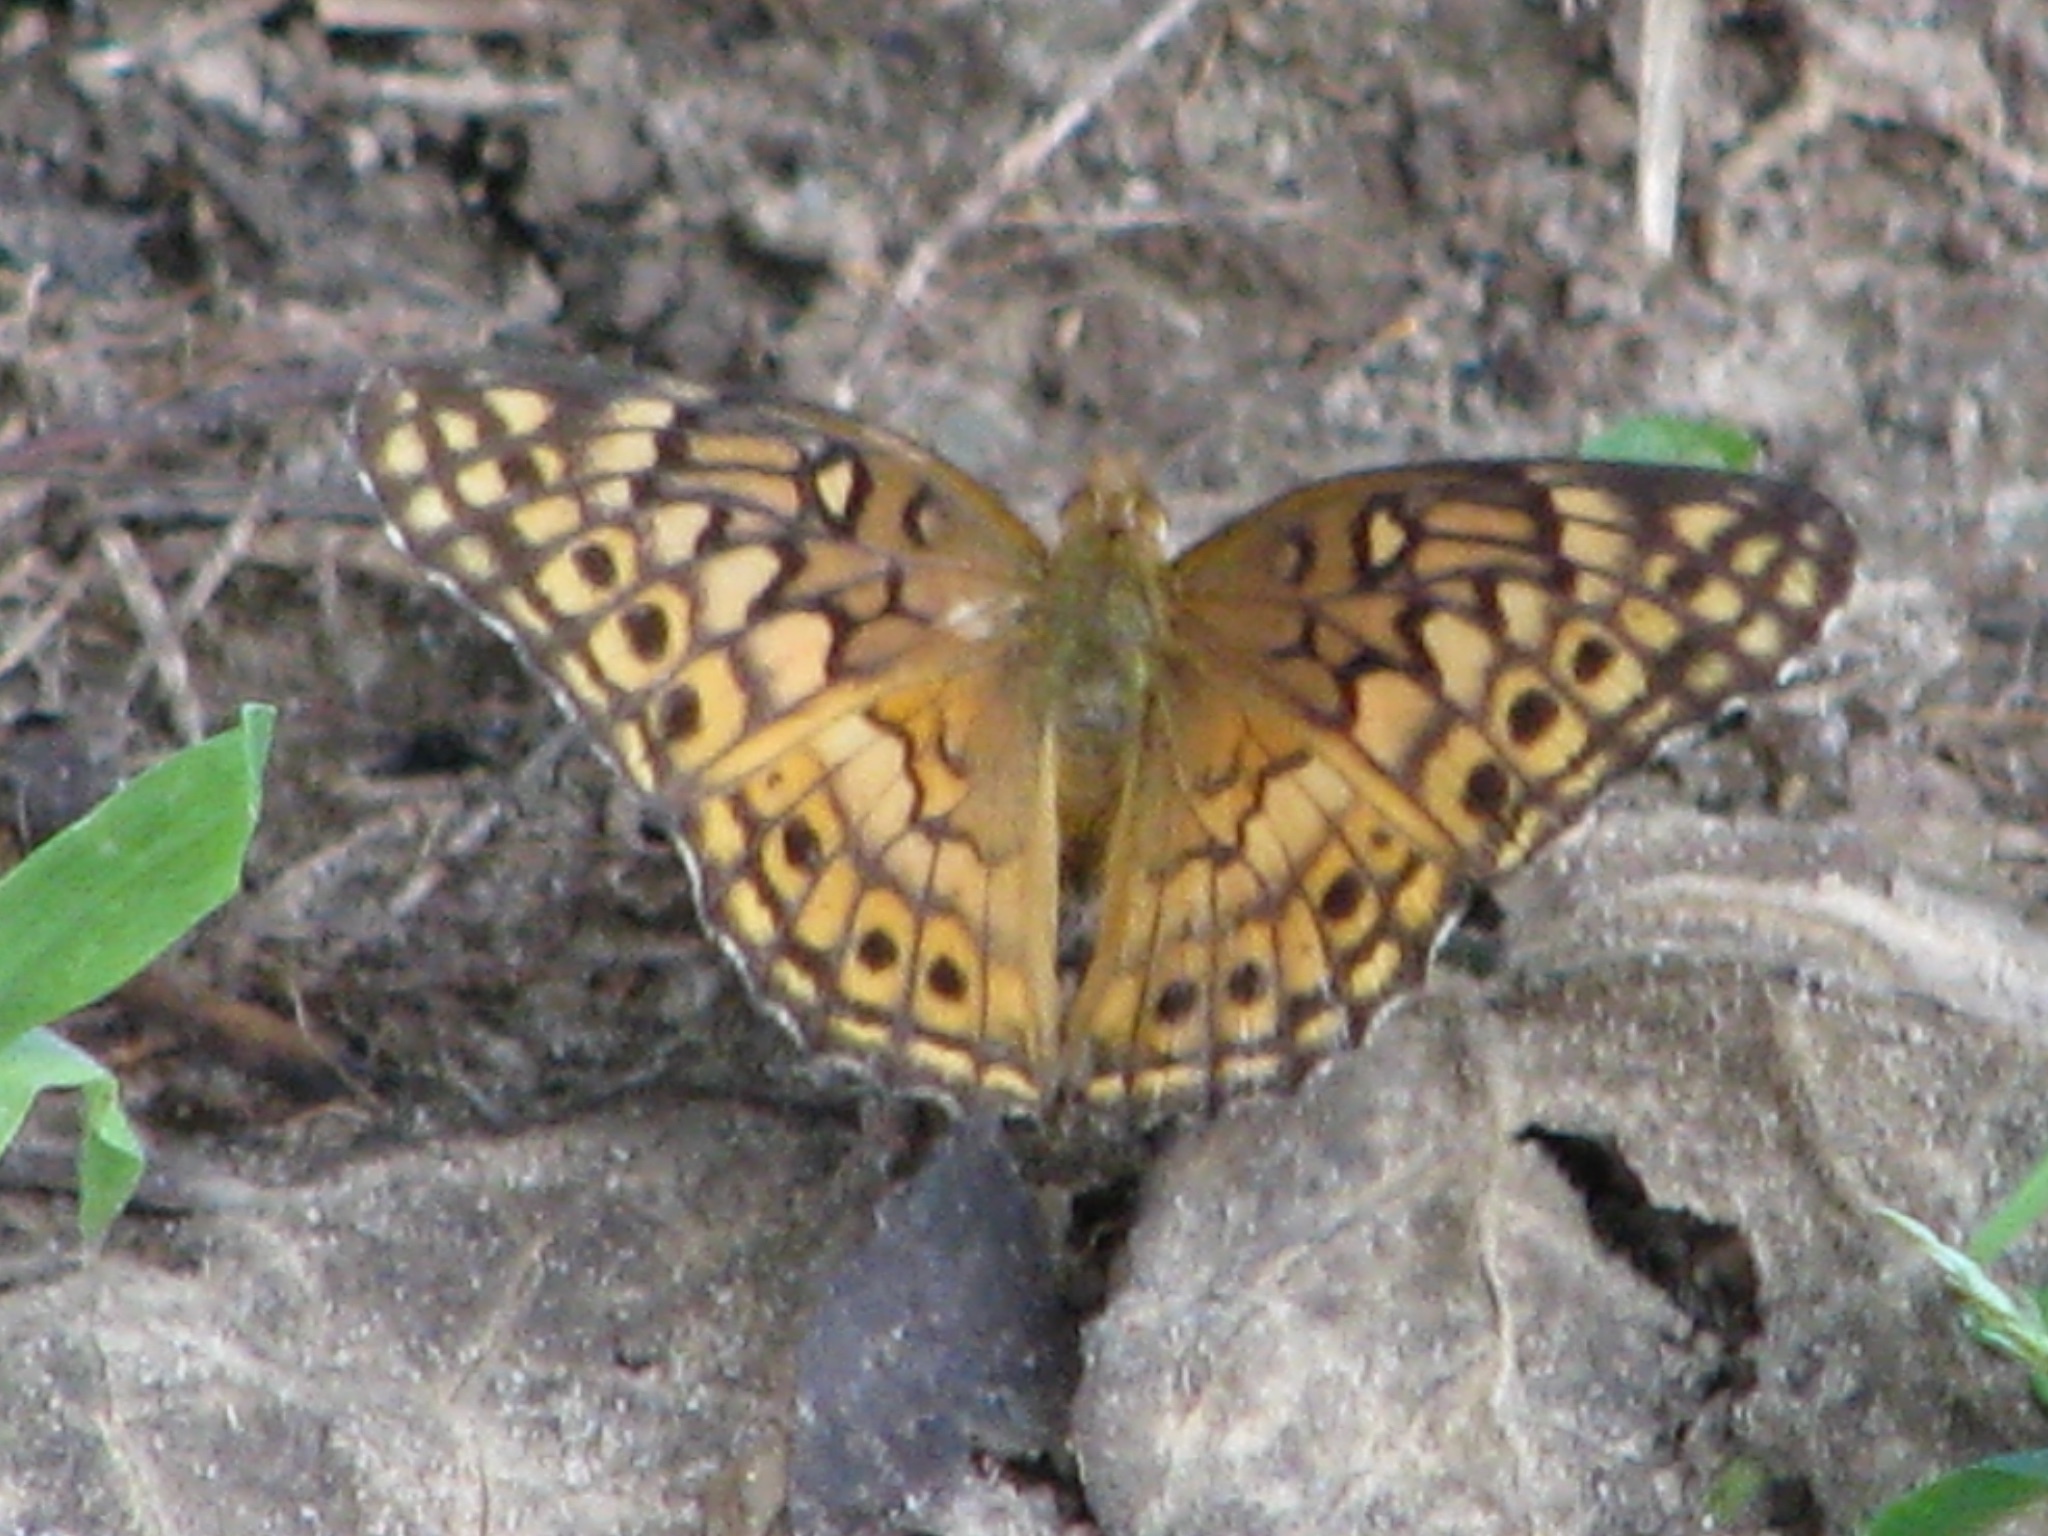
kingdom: Animalia
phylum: Arthropoda
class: Insecta
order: Lepidoptera
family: Nymphalidae
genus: Euptoieta
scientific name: Euptoieta claudia
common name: Variegated fritillary
